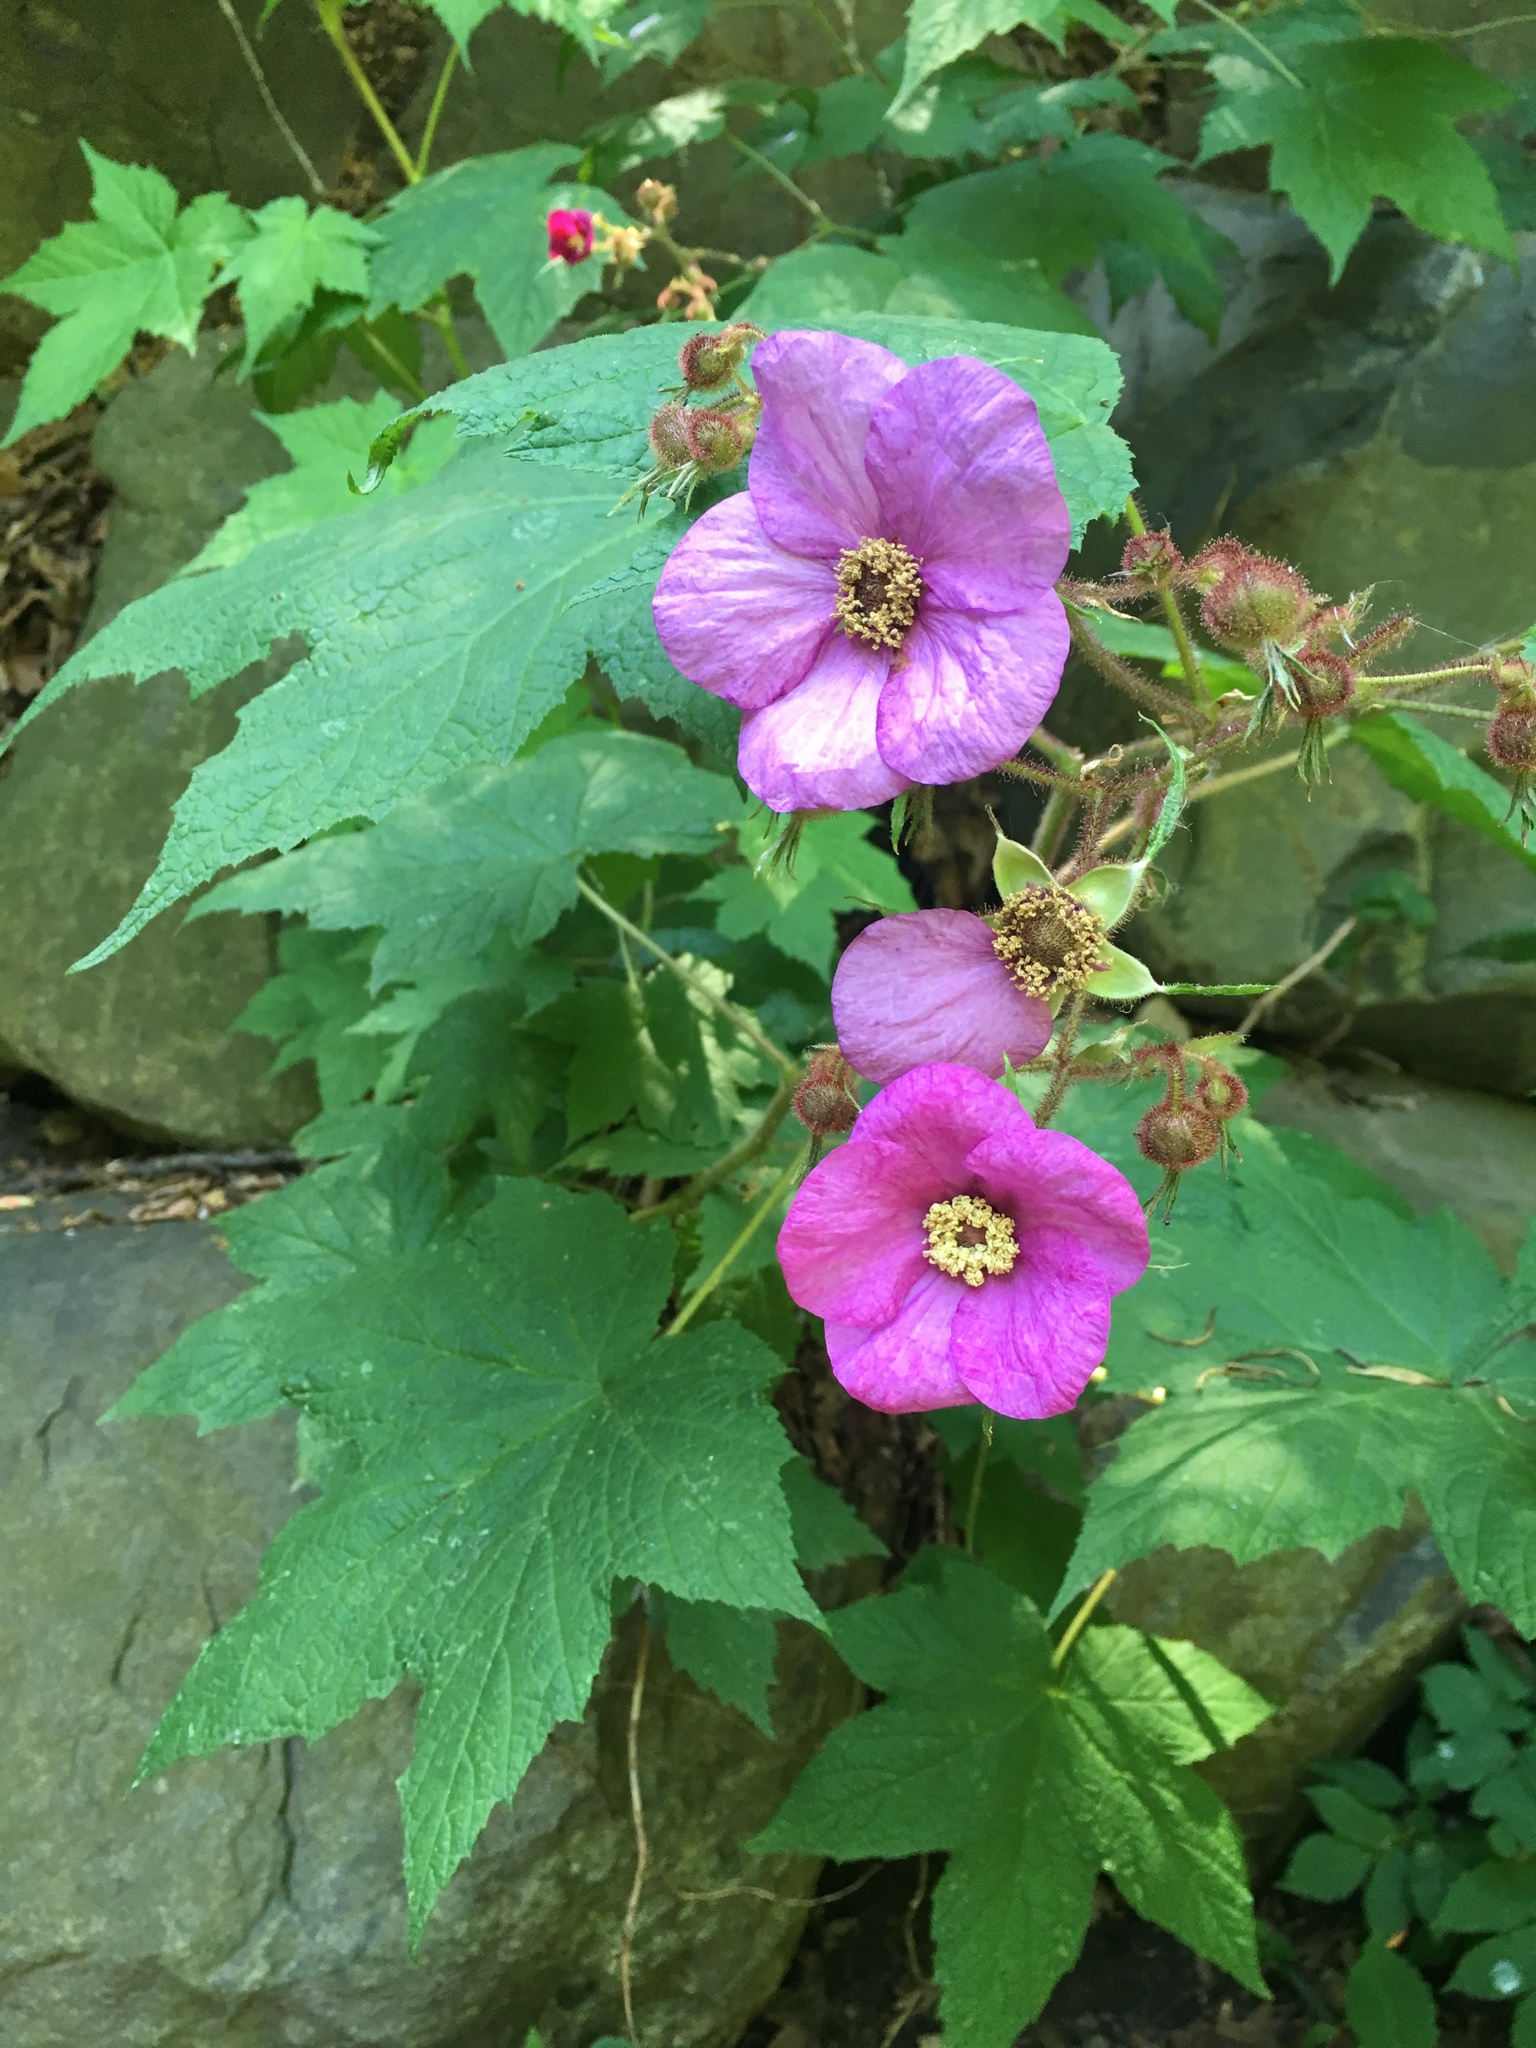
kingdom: Plantae
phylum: Tracheophyta
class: Magnoliopsida
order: Rosales
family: Rosaceae
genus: Rubus
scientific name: Rubus odoratus
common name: Purple-flowered raspberry
